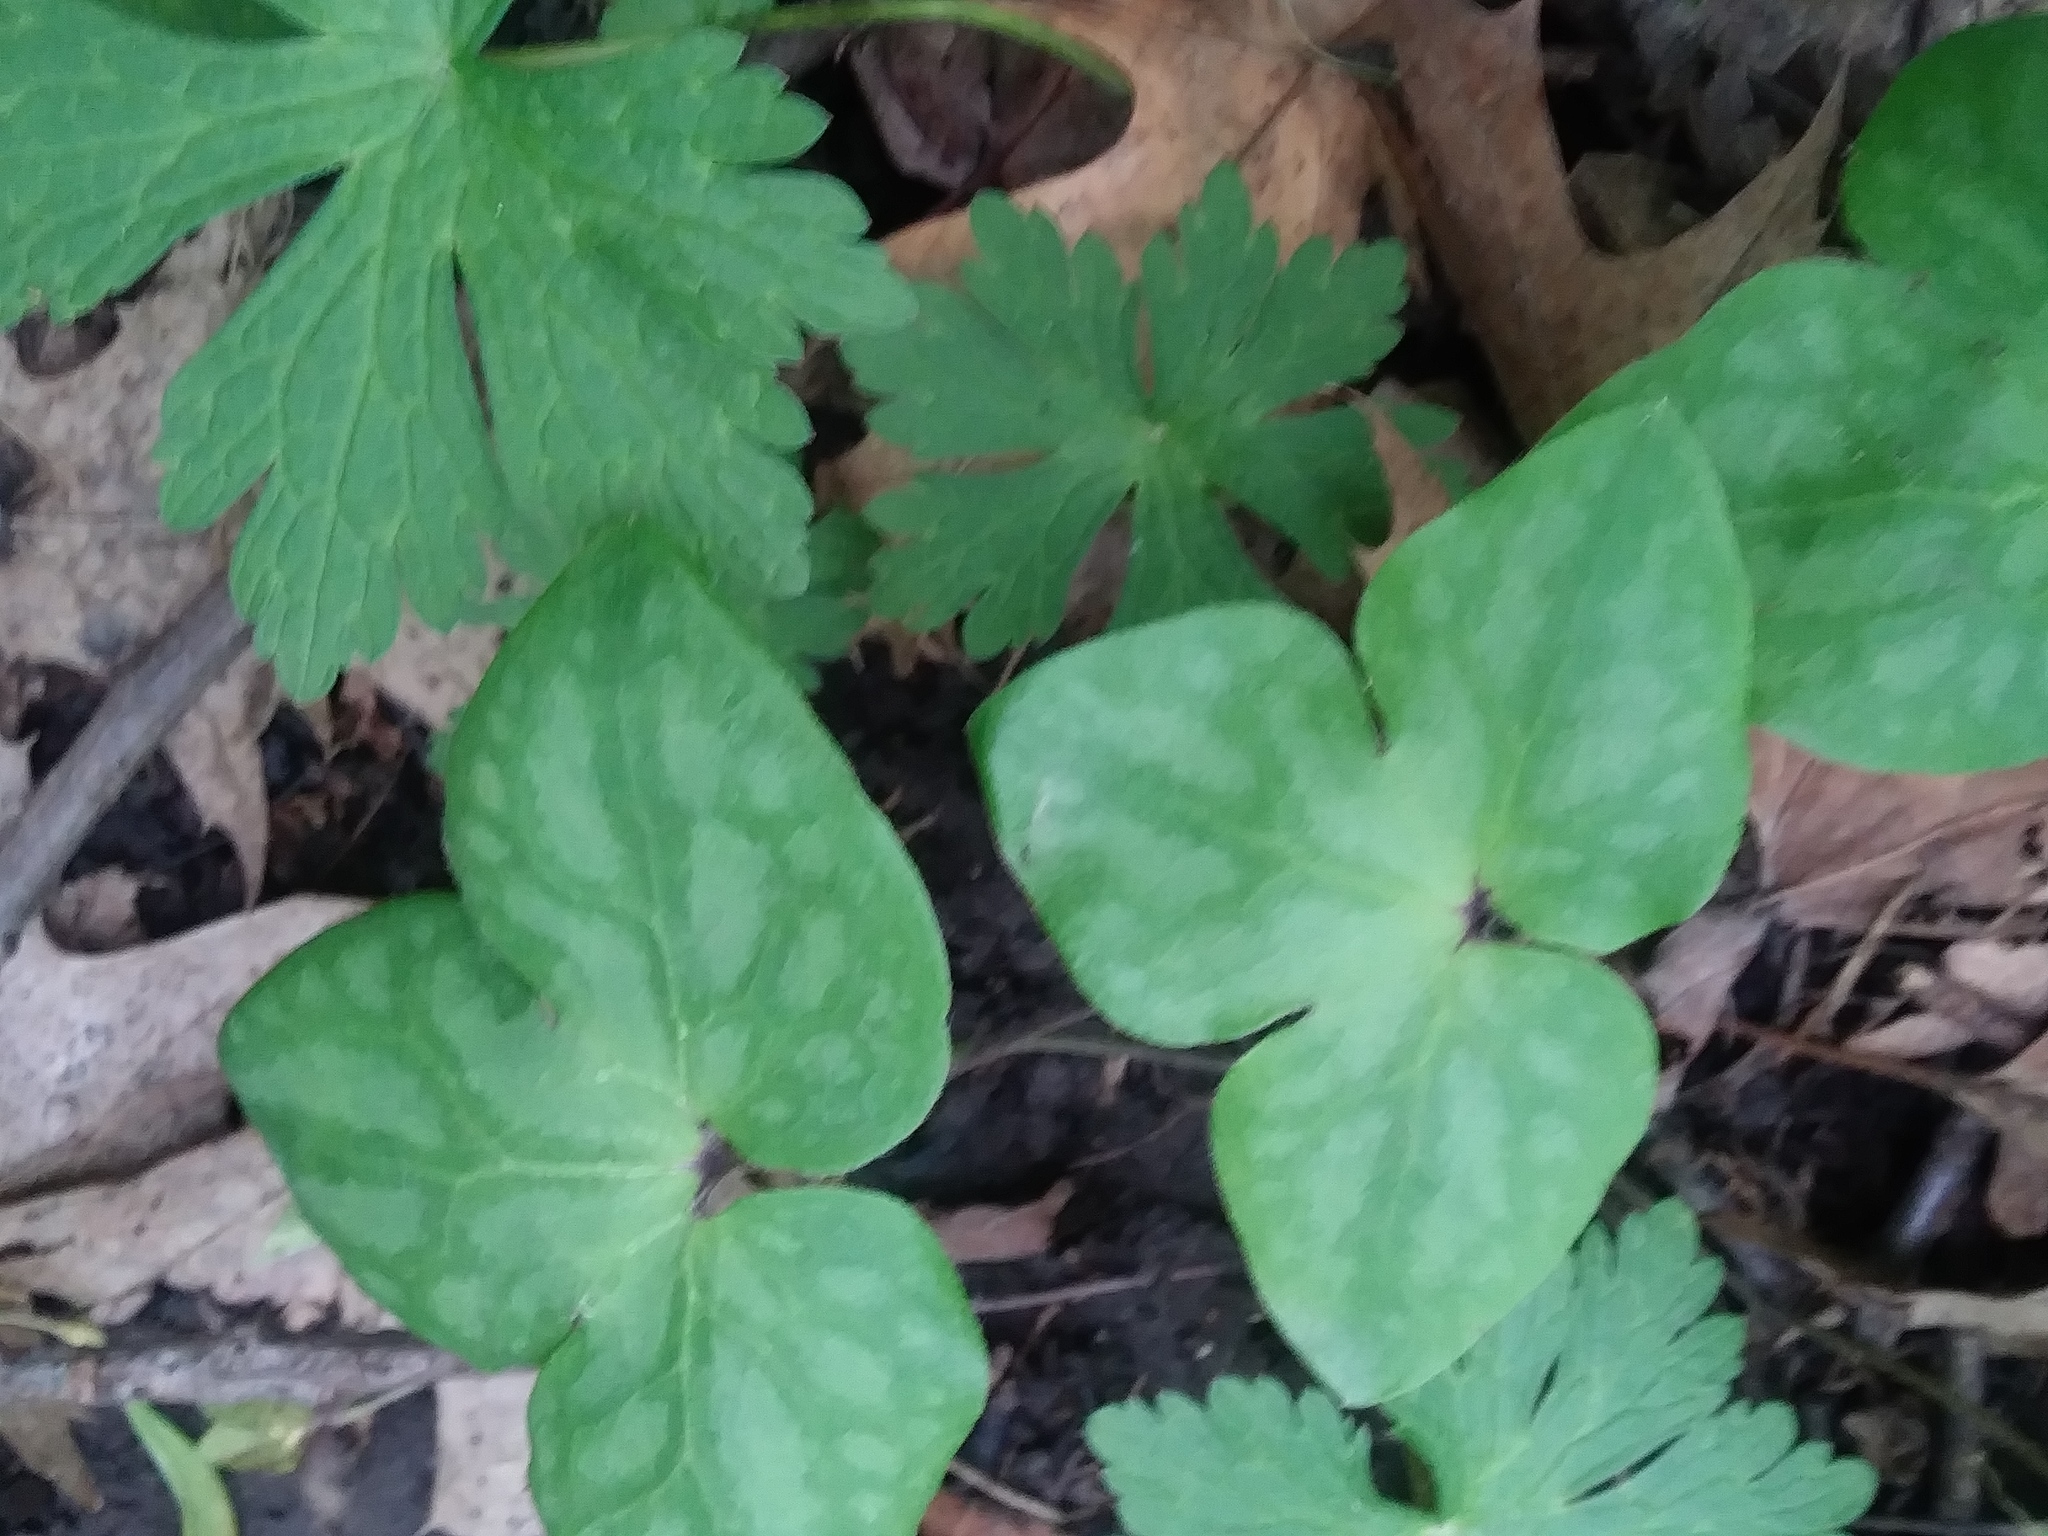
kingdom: Plantae
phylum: Tracheophyta
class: Magnoliopsida
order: Ranunculales
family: Ranunculaceae
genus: Hepatica
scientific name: Hepatica acutiloba
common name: Sharp-lobed hepatica
